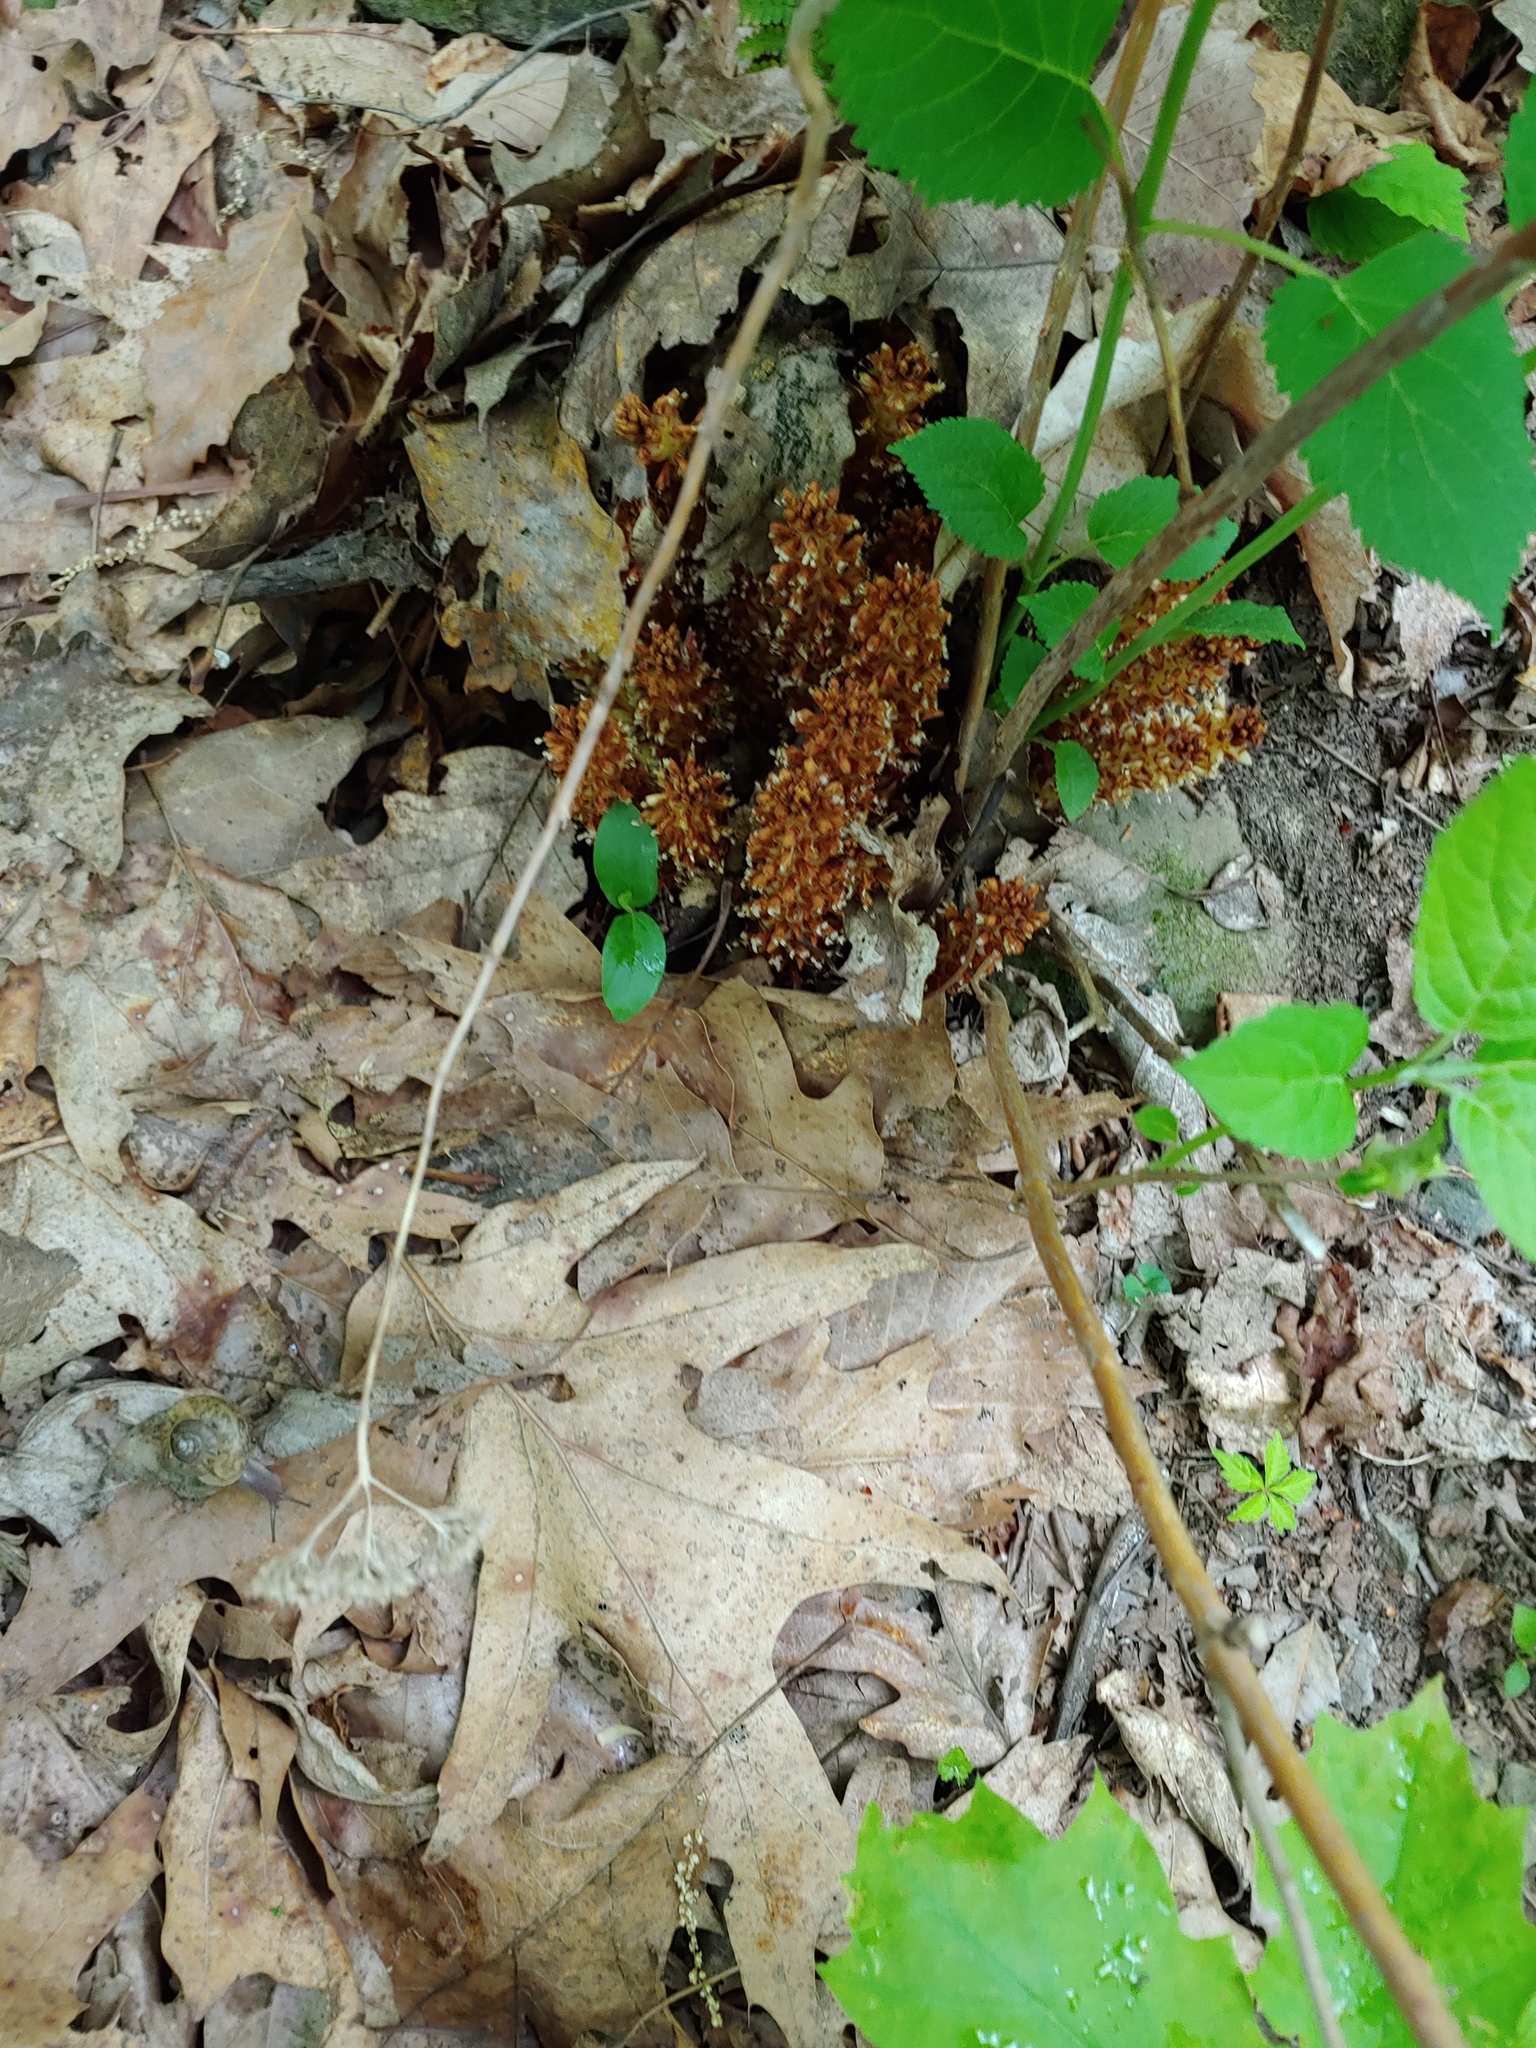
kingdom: Plantae
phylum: Tracheophyta
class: Magnoliopsida
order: Lamiales
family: Orobanchaceae
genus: Conopholis
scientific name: Conopholis americana
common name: American cancer-root
